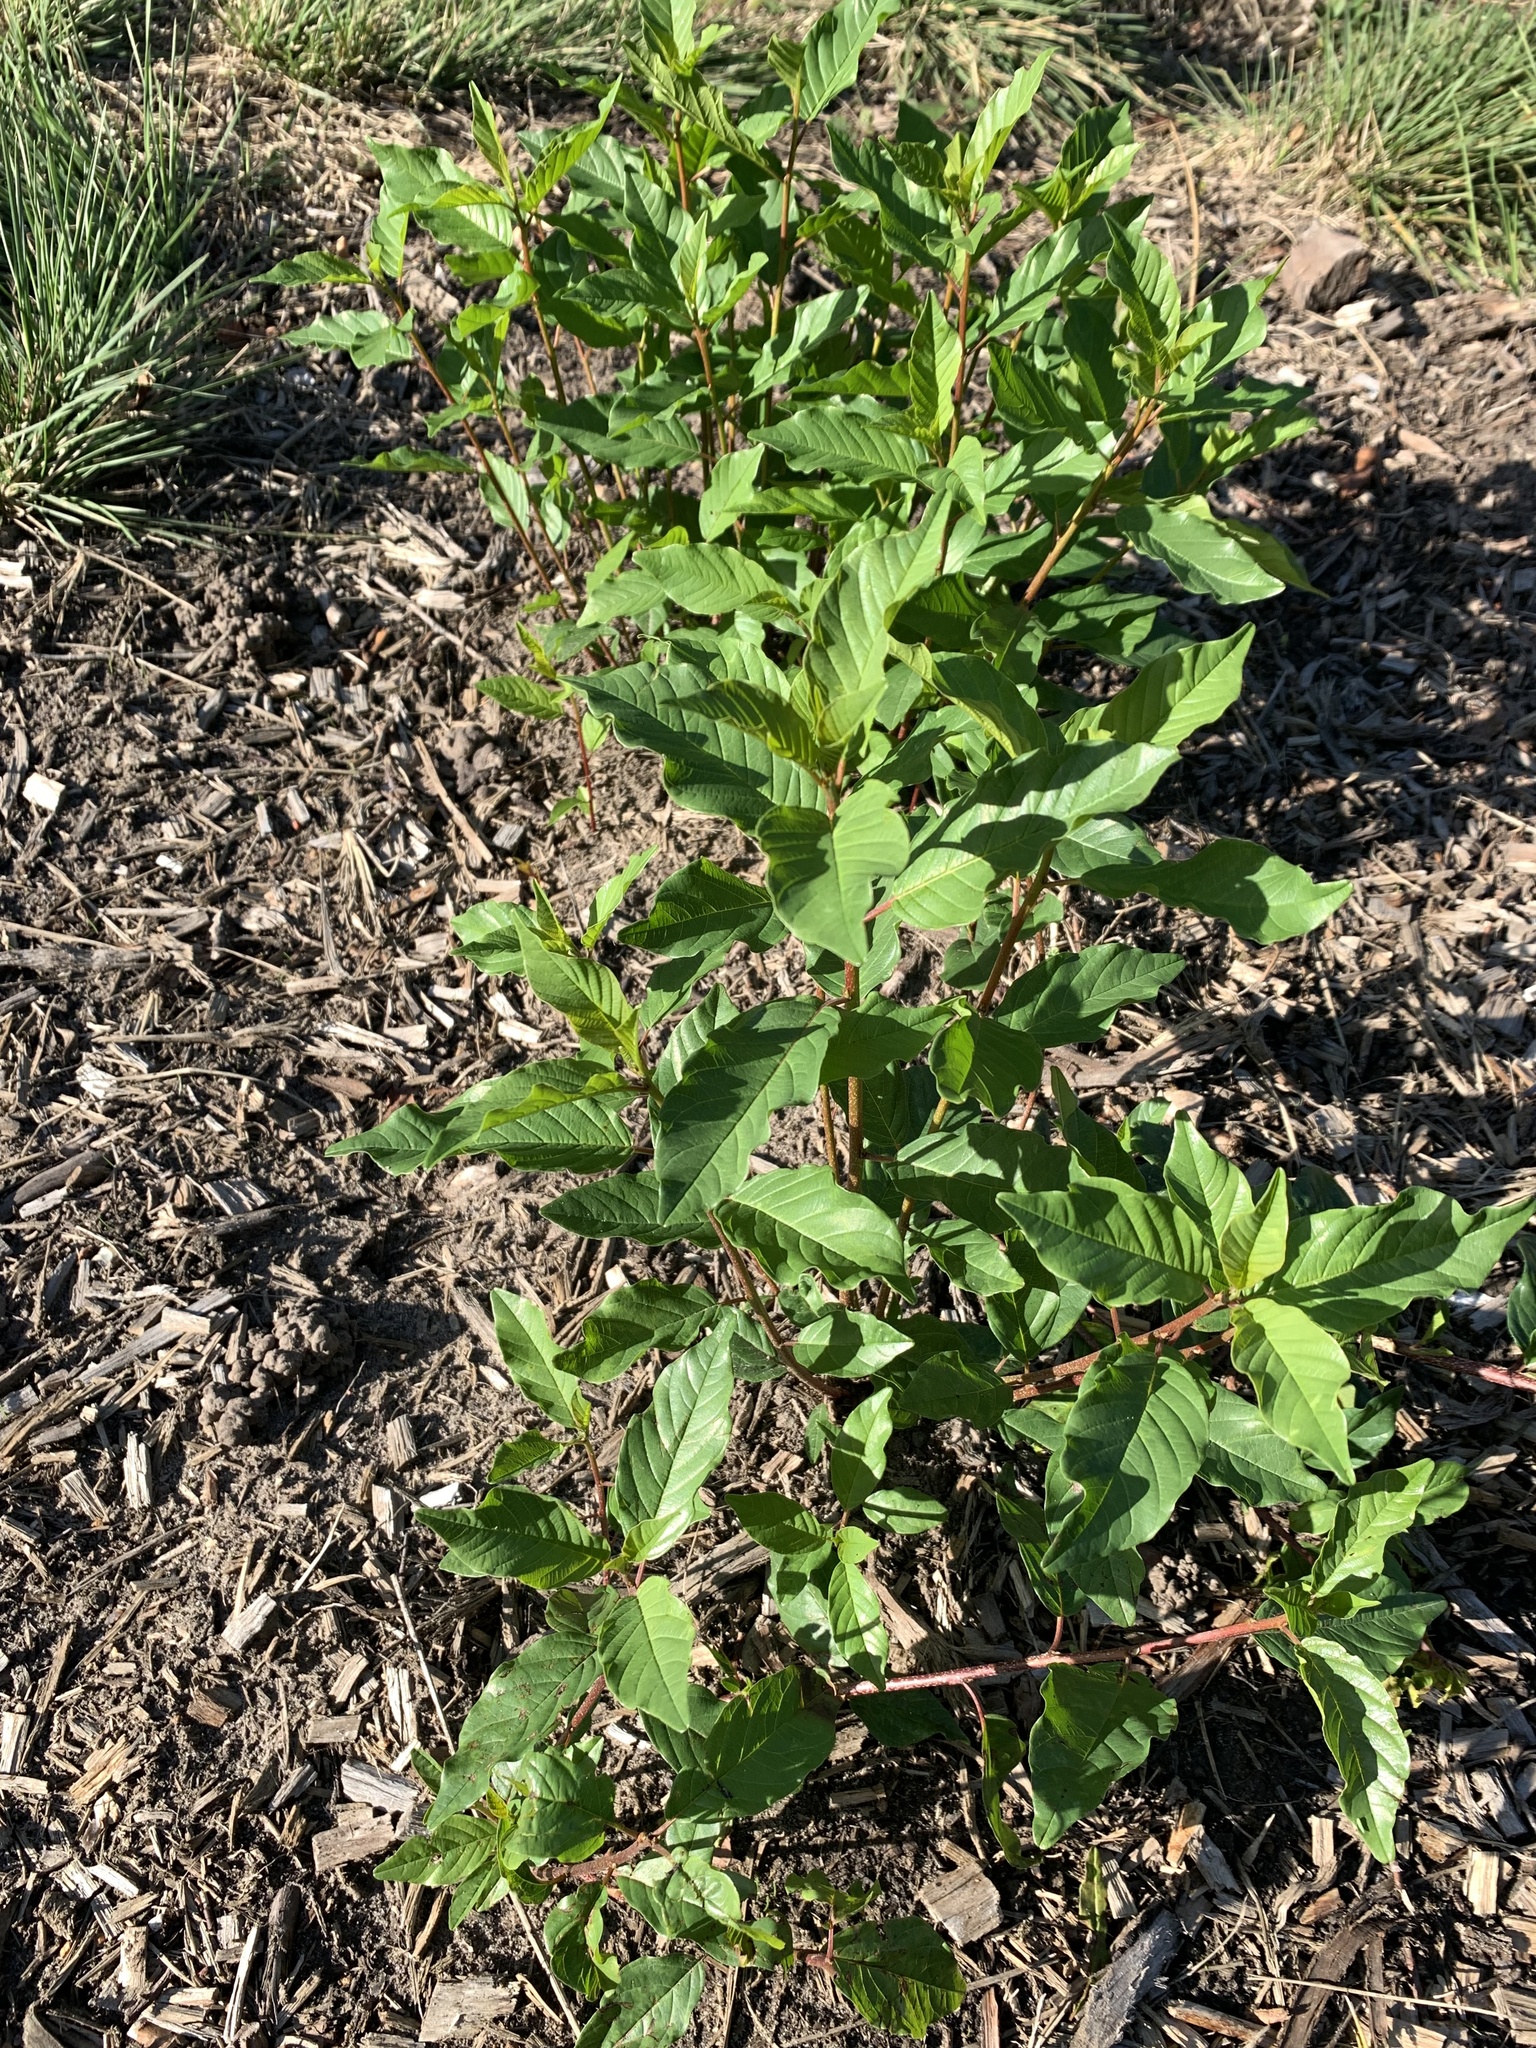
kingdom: Plantae
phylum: Tracheophyta
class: Magnoliopsida
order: Rosales
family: Rhamnaceae
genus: Frangula
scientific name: Frangula alnus
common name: Alder buckthorn
